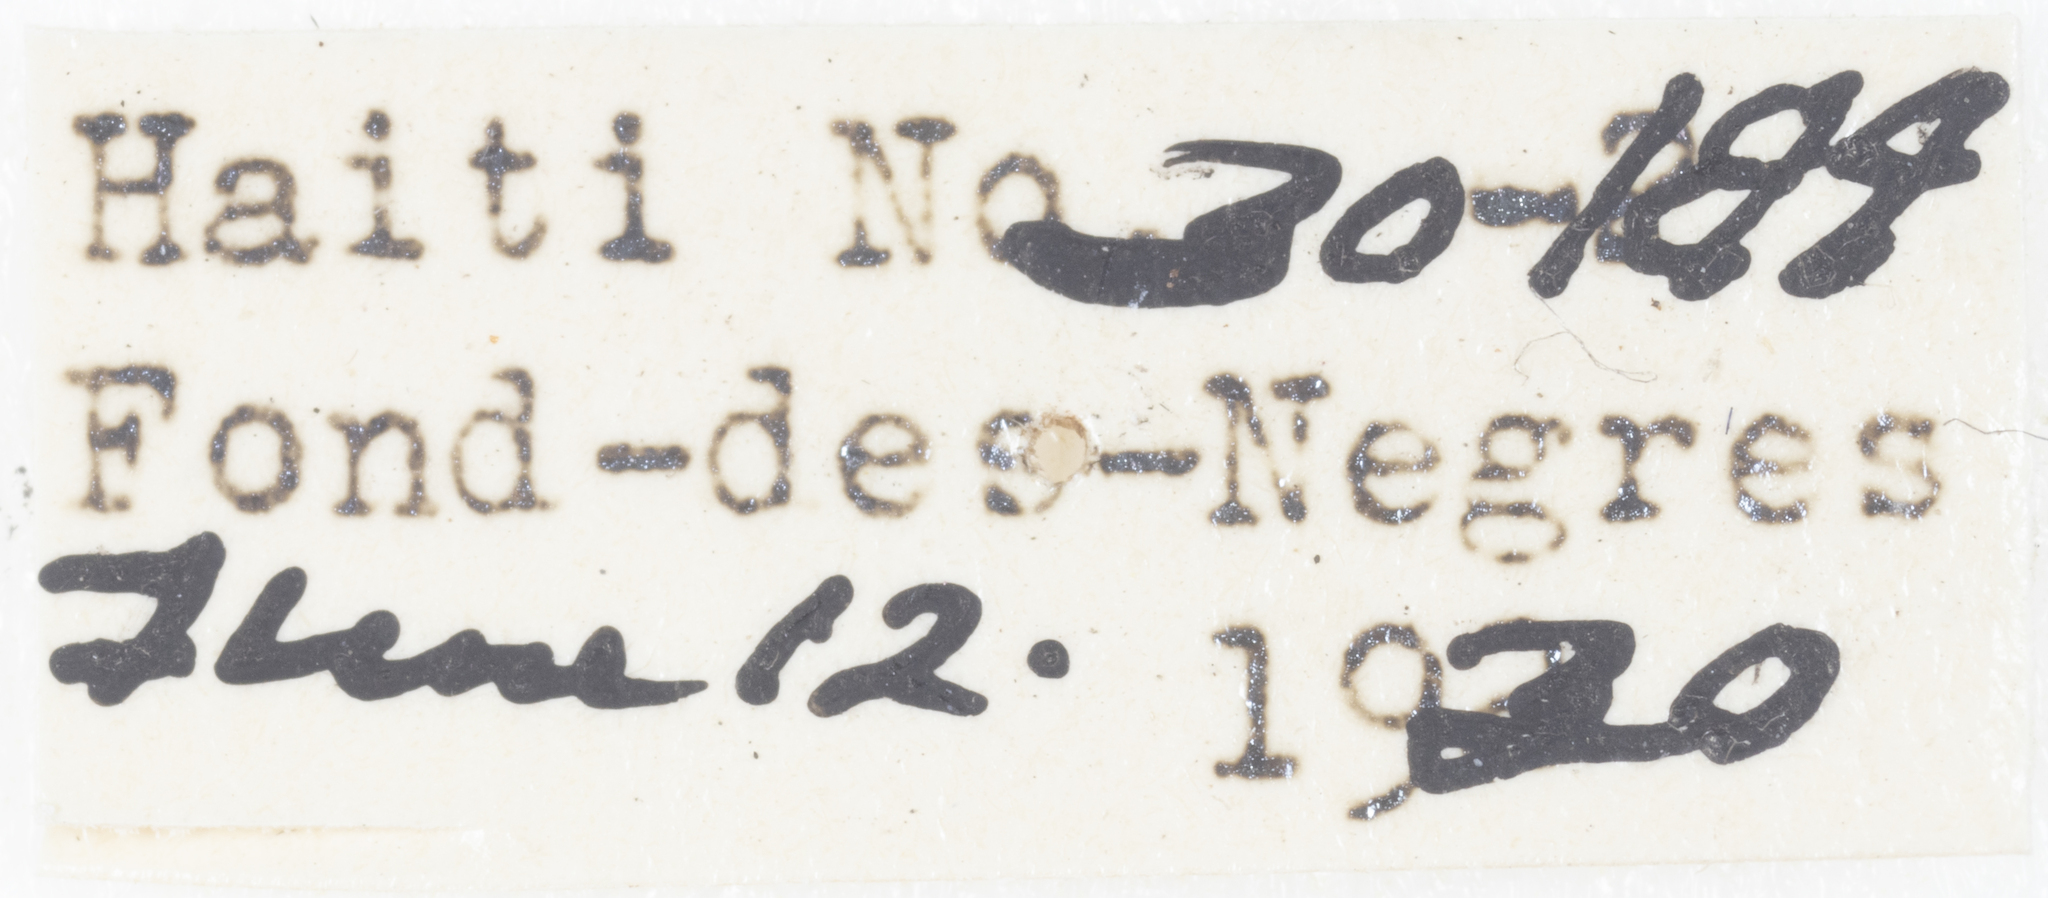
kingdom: Animalia
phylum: Arthropoda
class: Insecta
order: Hemiptera
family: Nogodinidae
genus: Colpoptera
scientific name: Colpoptera clerodendri
